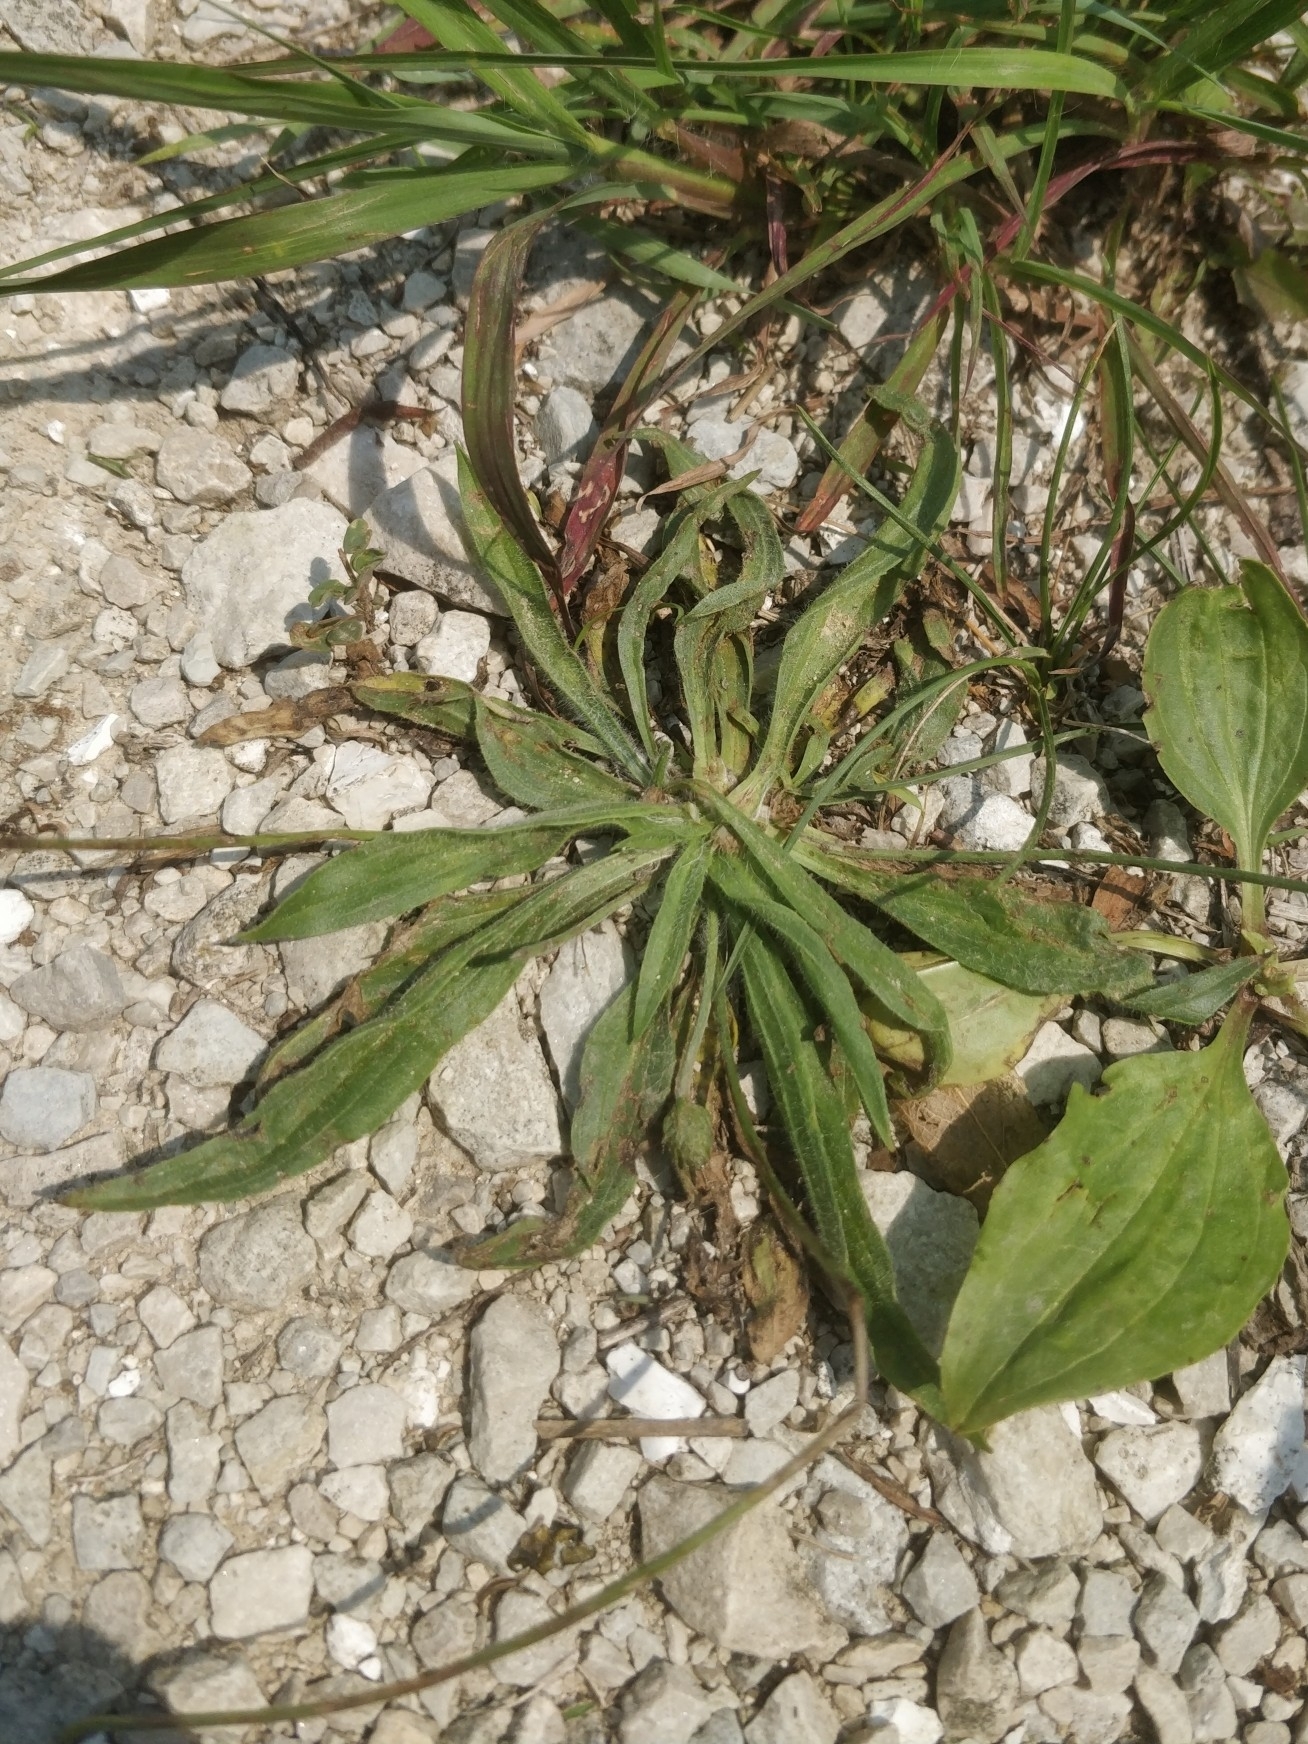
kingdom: Plantae
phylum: Tracheophyta
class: Magnoliopsida
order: Lamiales
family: Plantaginaceae
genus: Plantago
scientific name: Plantago lanceolata
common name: Ribwort plantain
